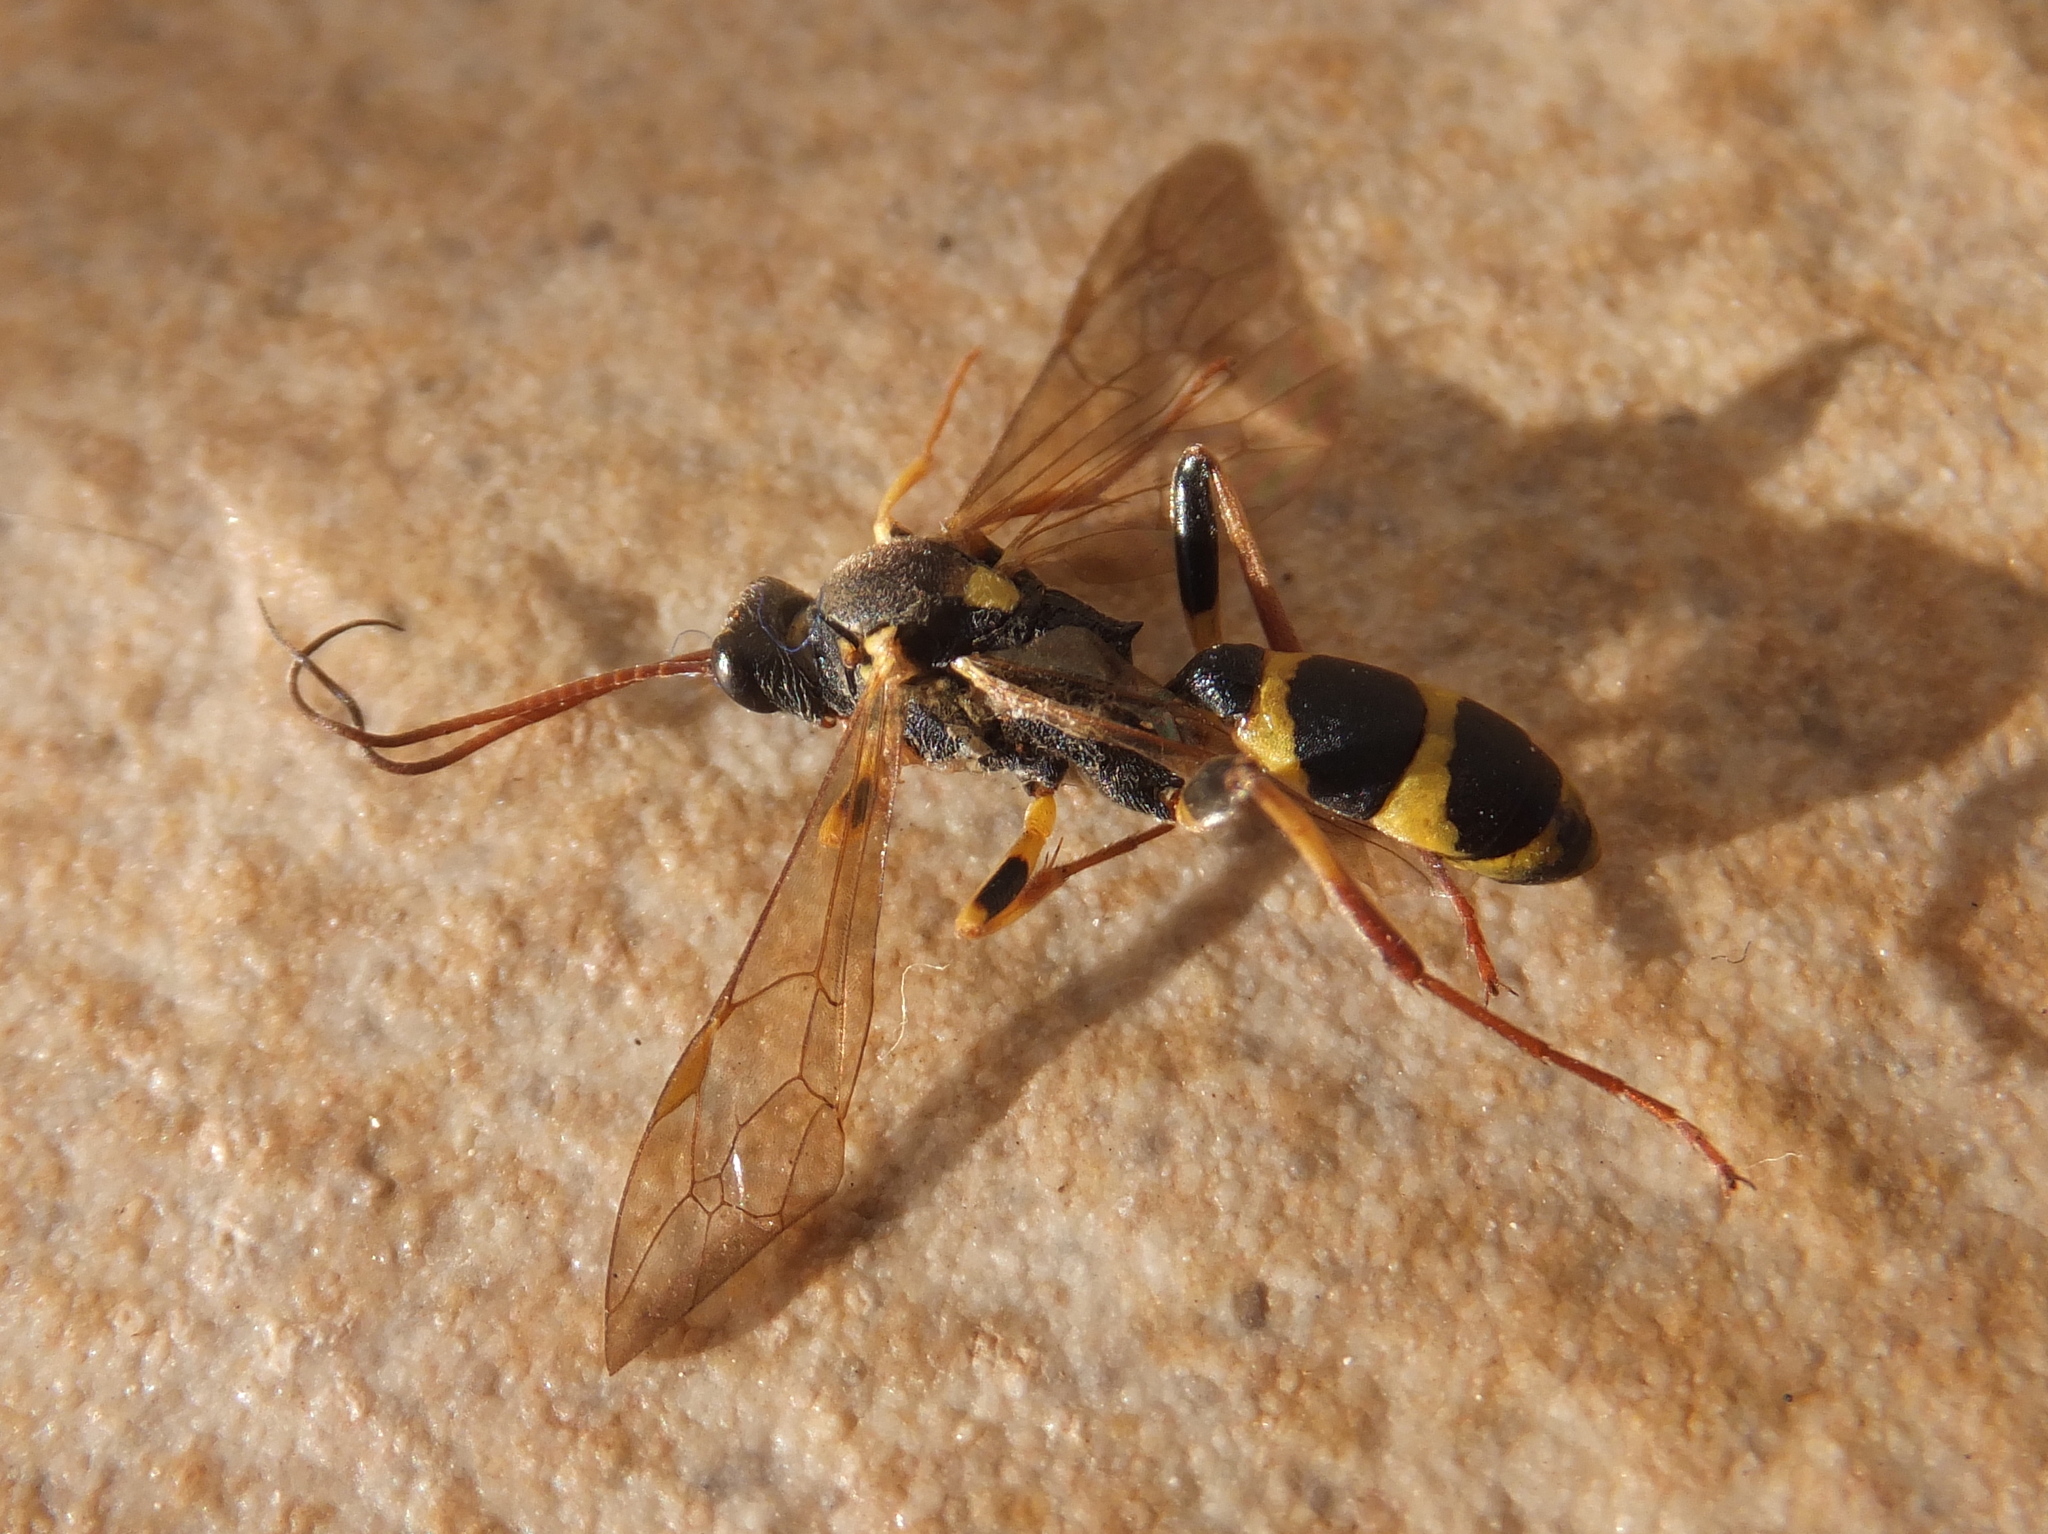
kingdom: Animalia
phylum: Arthropoda
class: Insecta
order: Hymenoptera
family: Ichneumonidae
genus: Amblyteles
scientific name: Amblyteles armatorius
